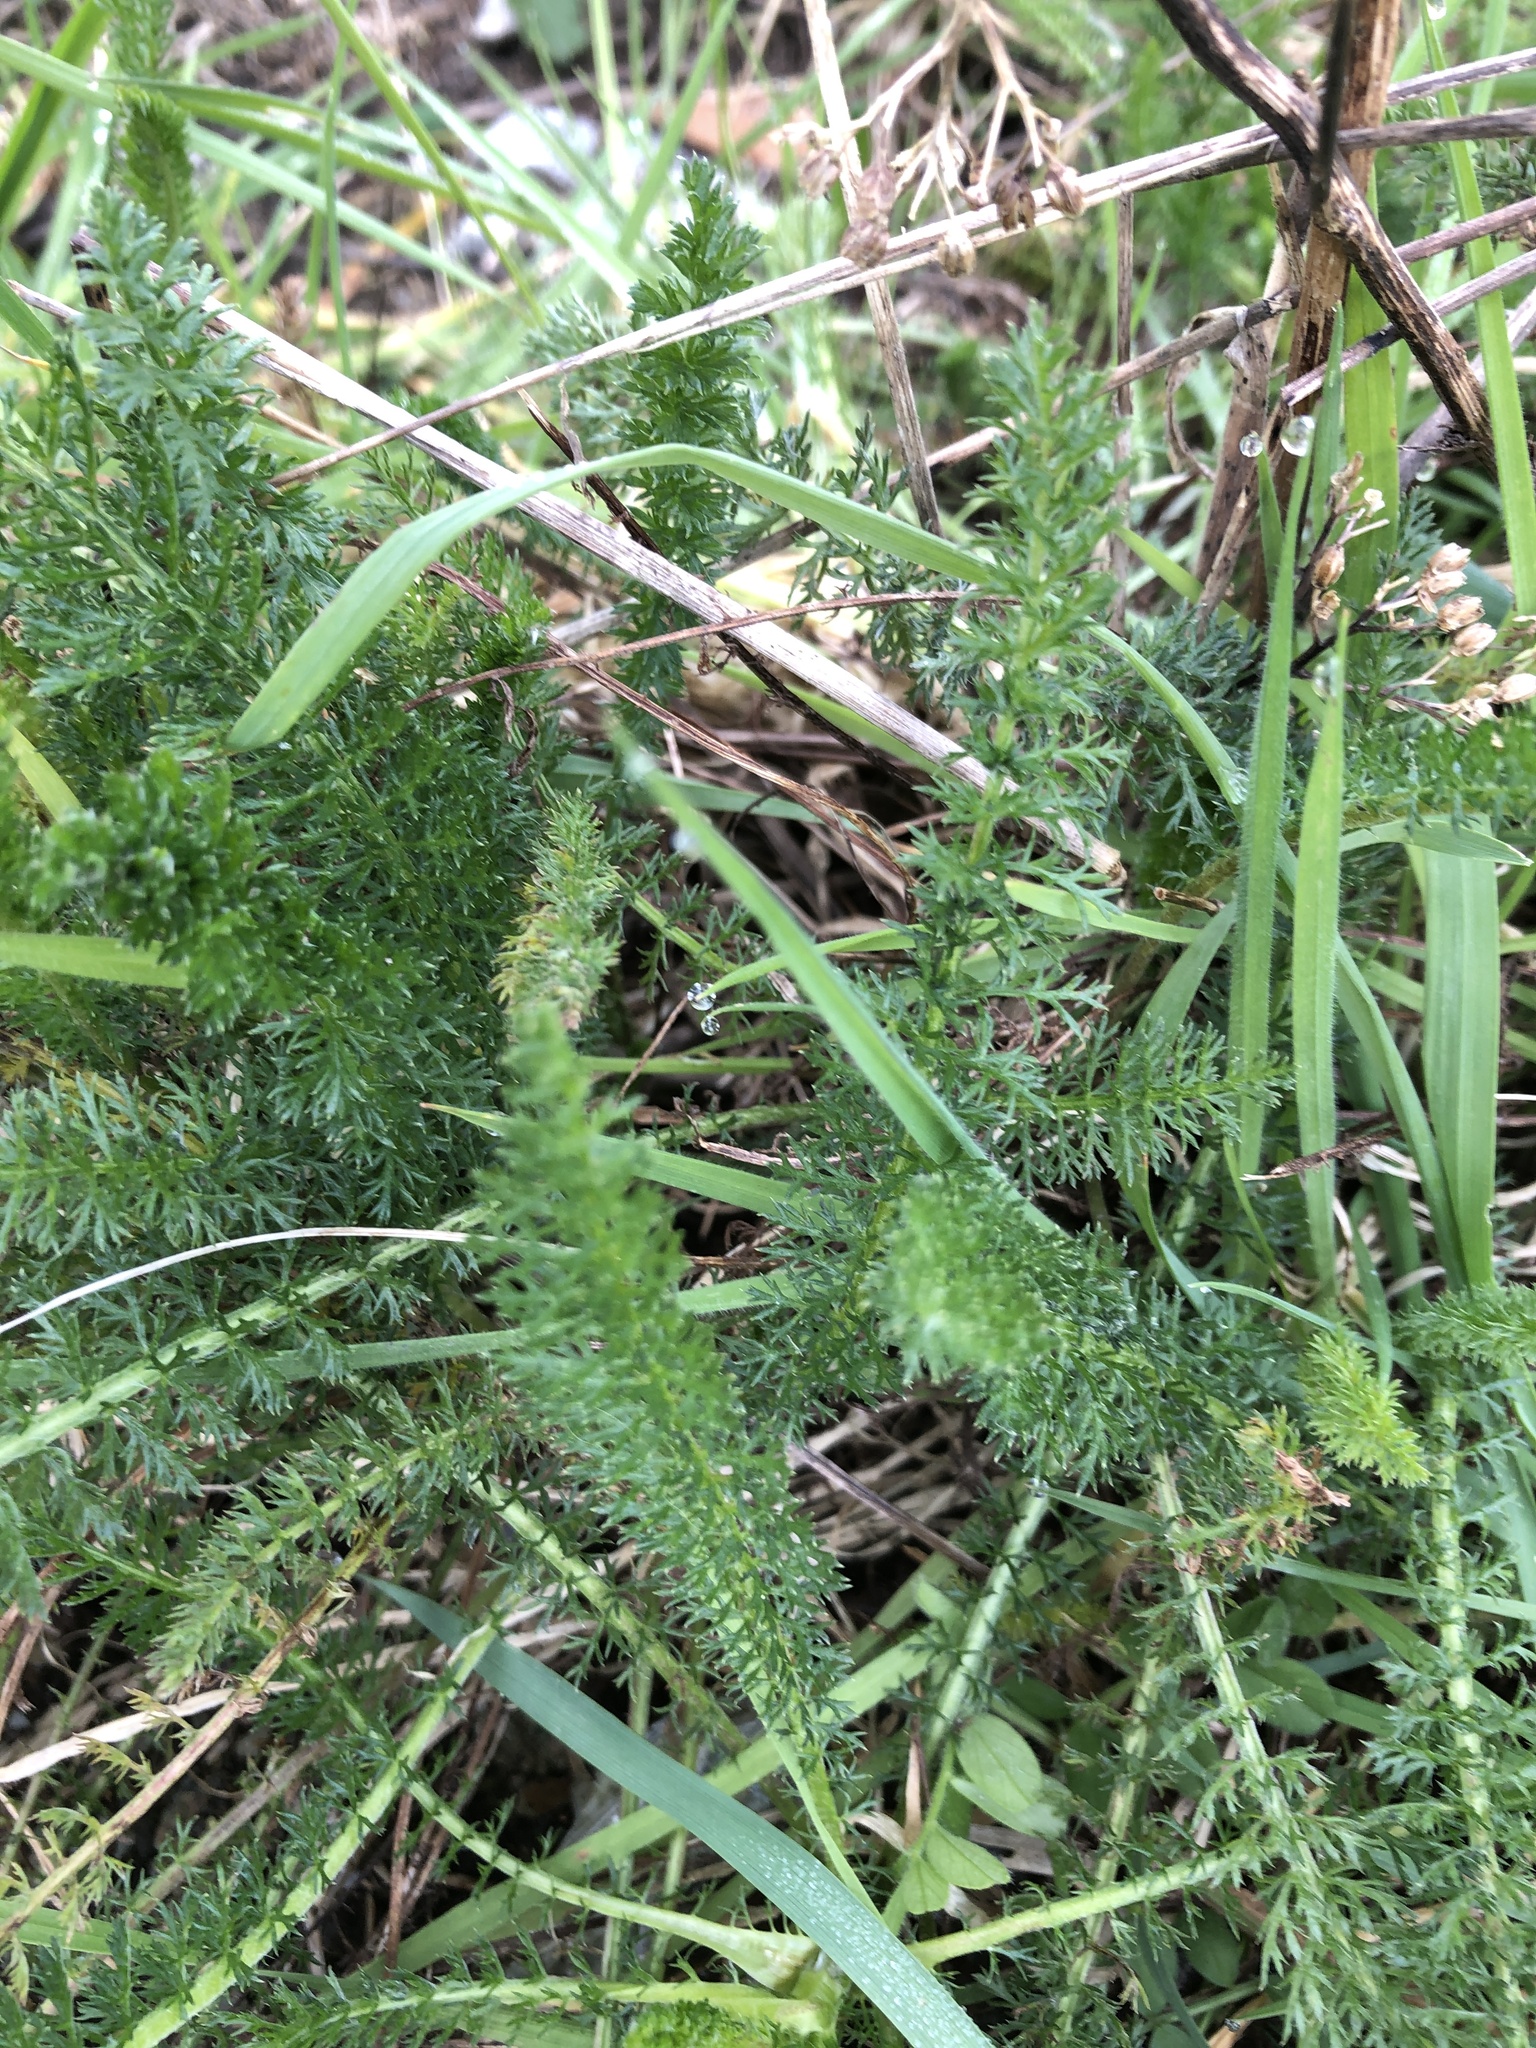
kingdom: Plantae
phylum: Tracheophyta
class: Magnoliopsida
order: Asterales
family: Asteraceae
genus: Achillea
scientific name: Achillea millefolium
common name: Yarrow
